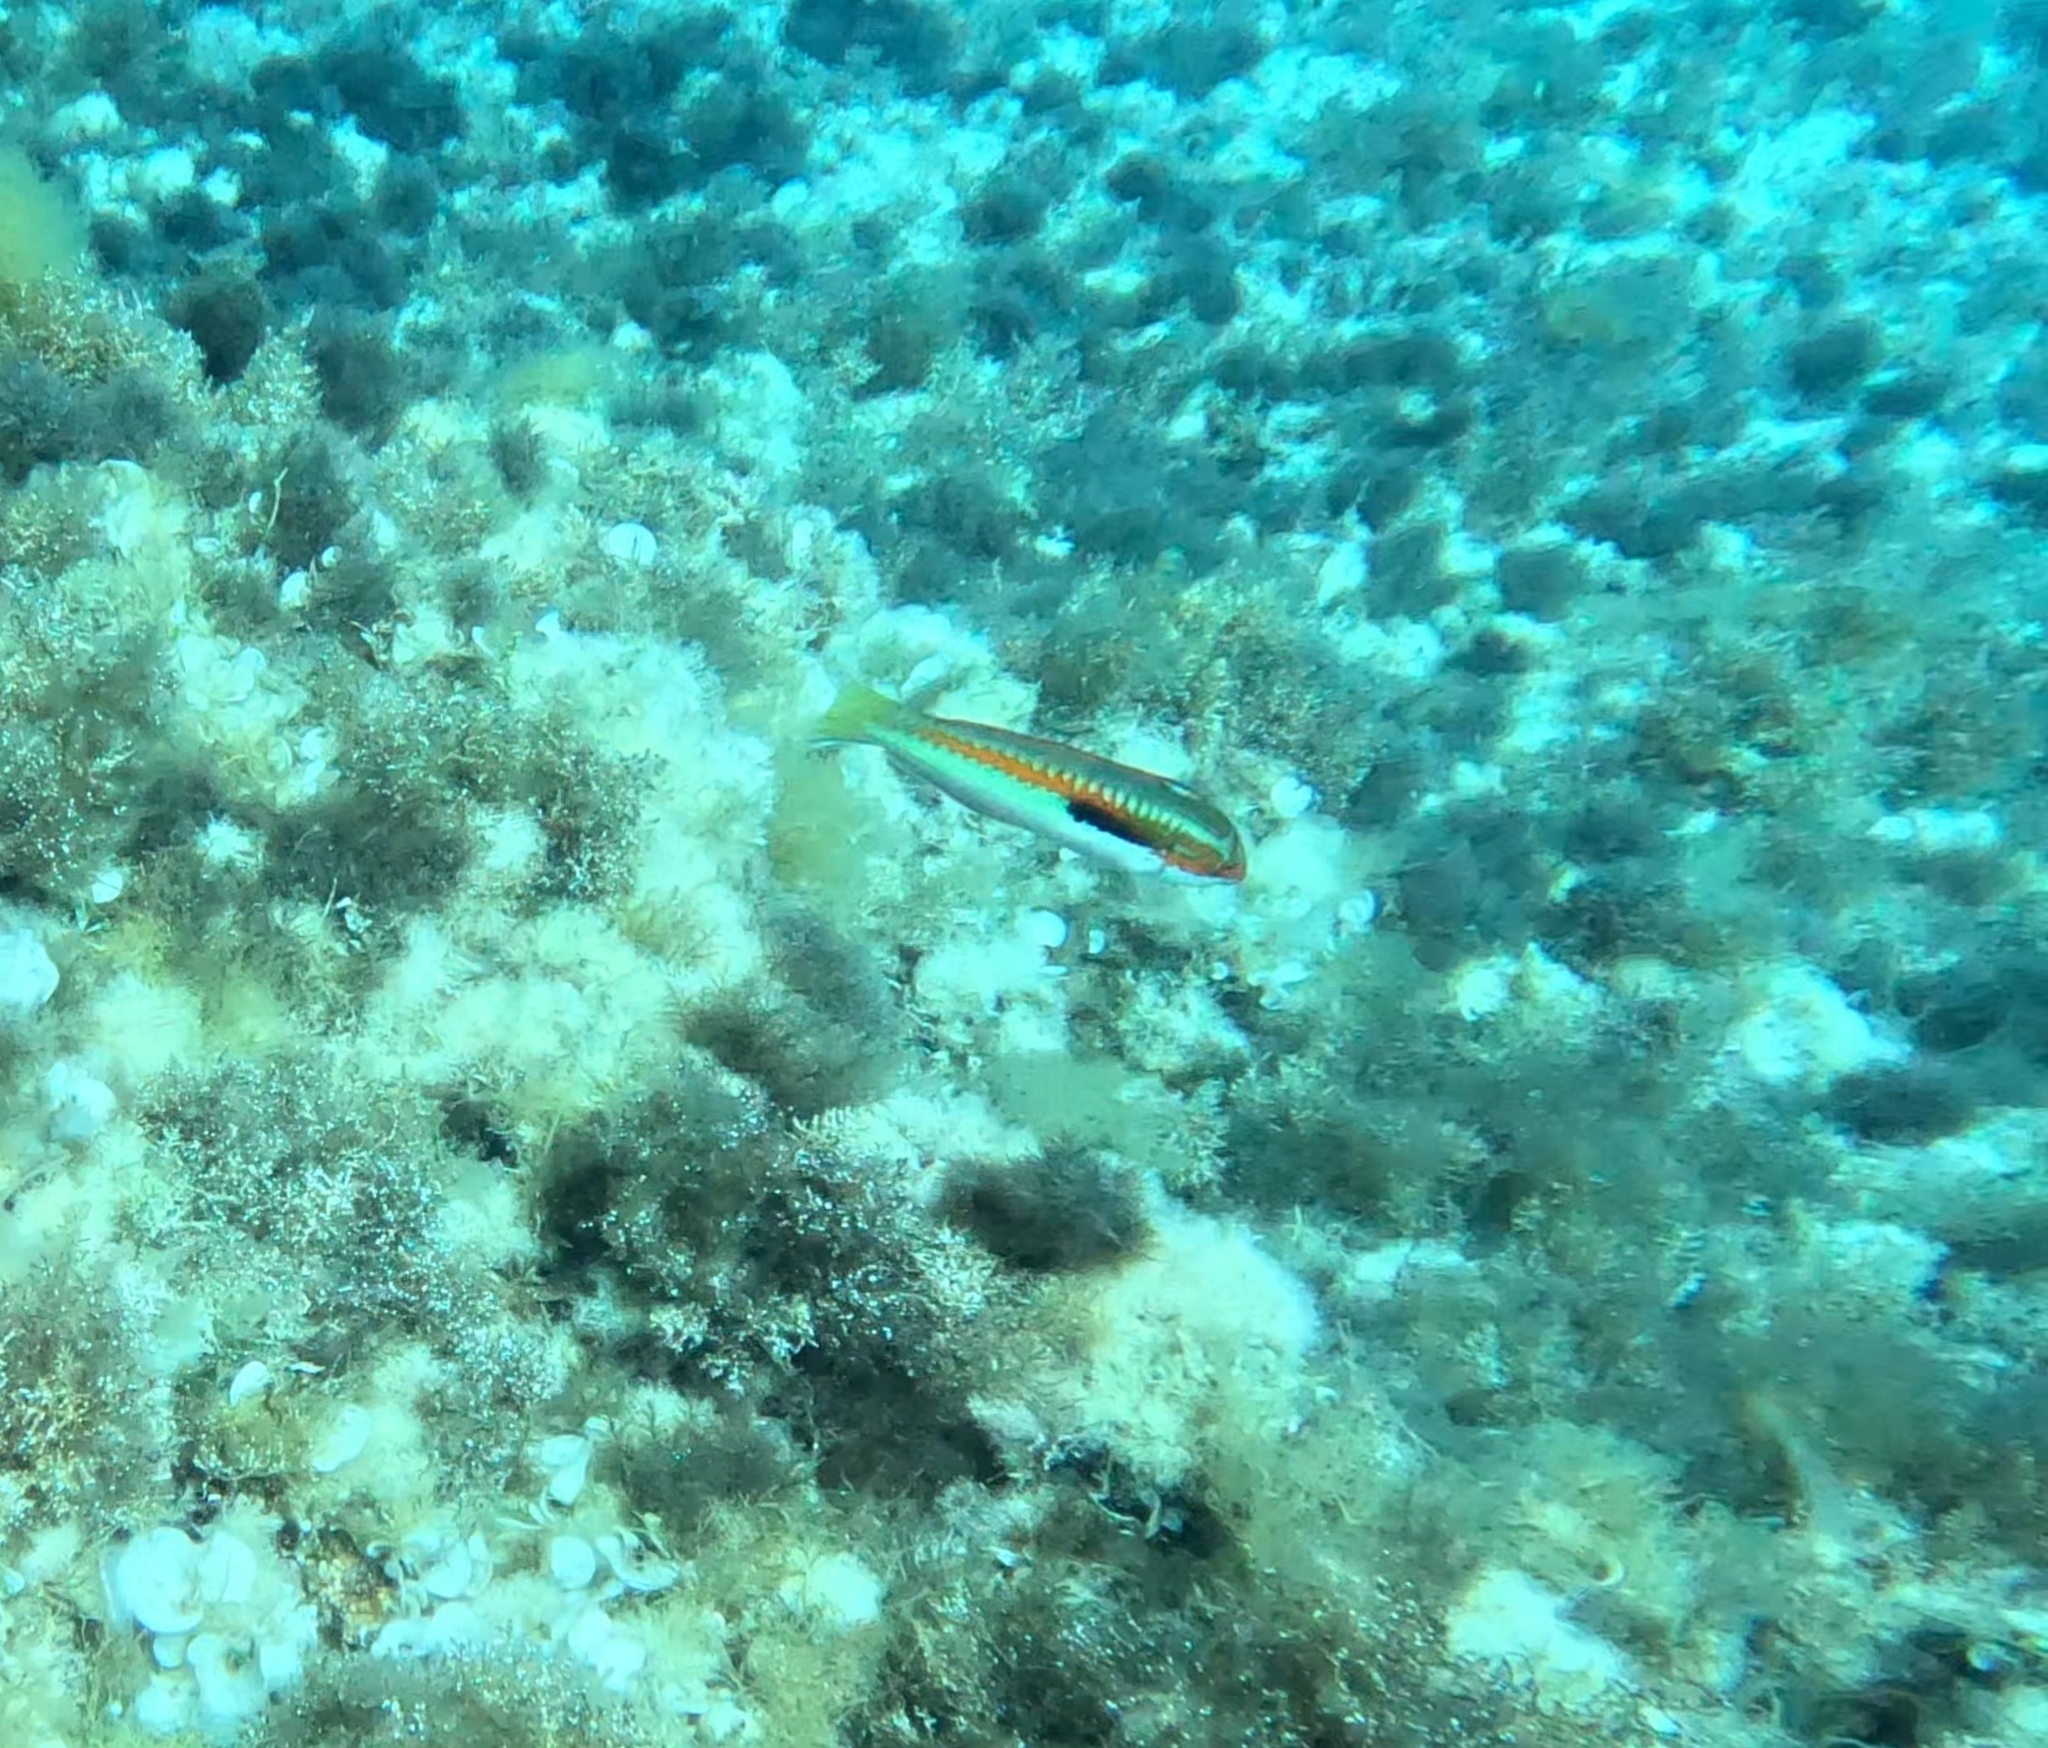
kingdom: Animalia
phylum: Chordata
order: Perciformes
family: Labridae
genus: Coris
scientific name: Coris julis
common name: Rainbow wrasse
